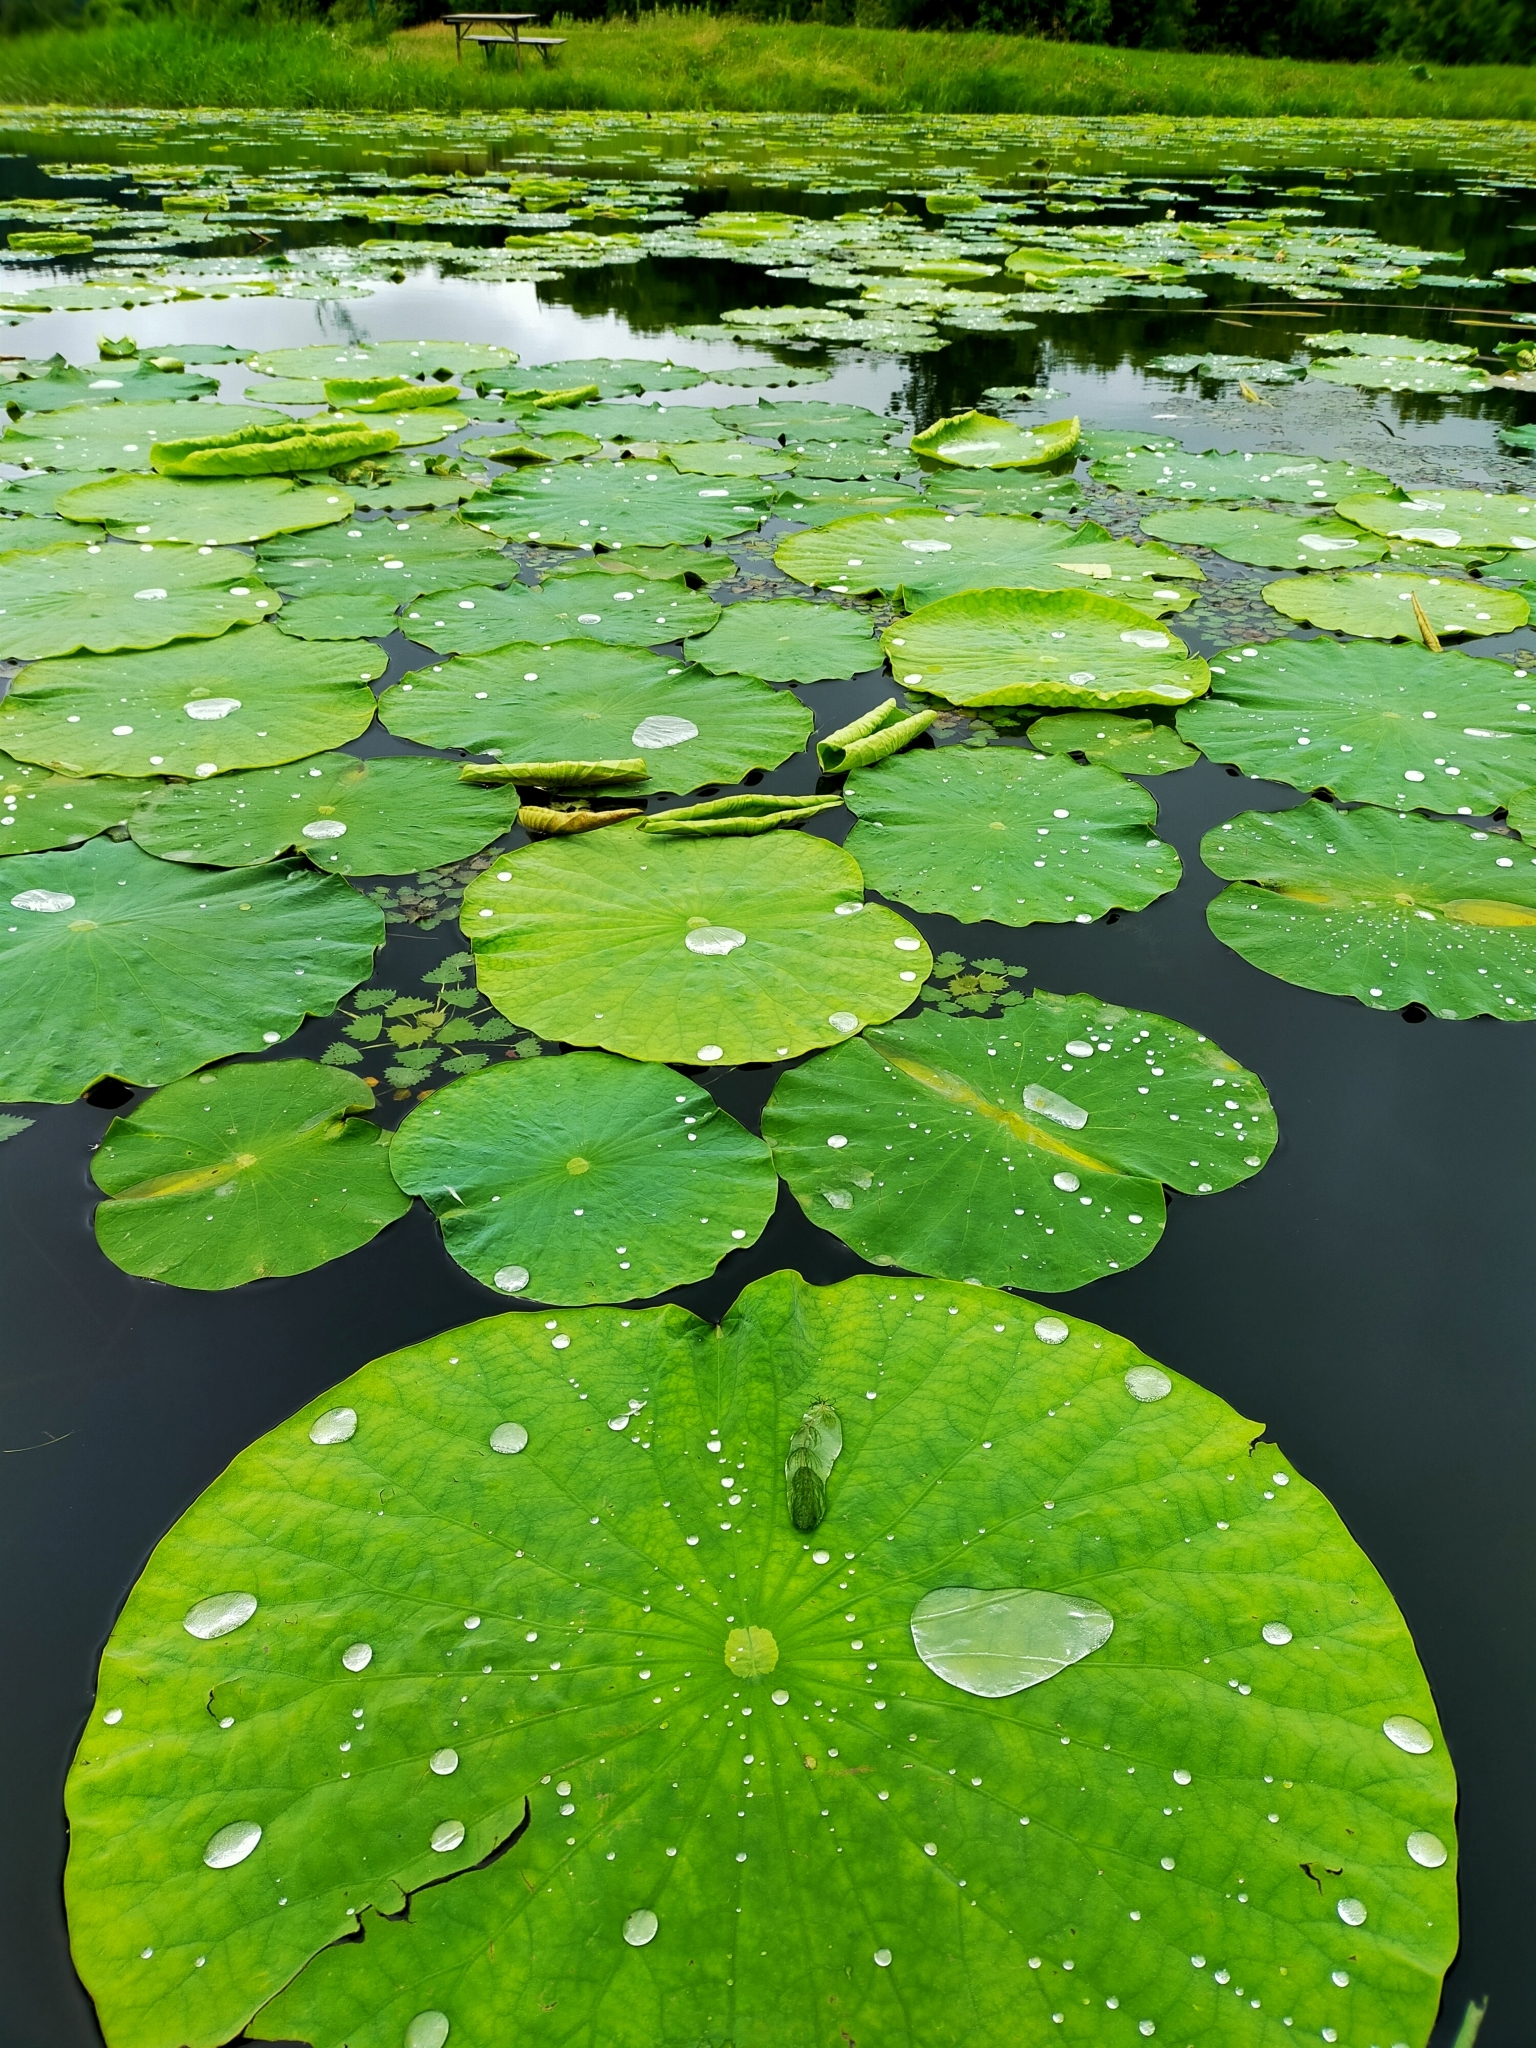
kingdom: Plantae
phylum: Tracheophyta
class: Magnoliopsida
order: Proteales
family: Nelumbonaceae
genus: Nelumbo
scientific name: Nelumbo nucifera
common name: Sacred lotus
